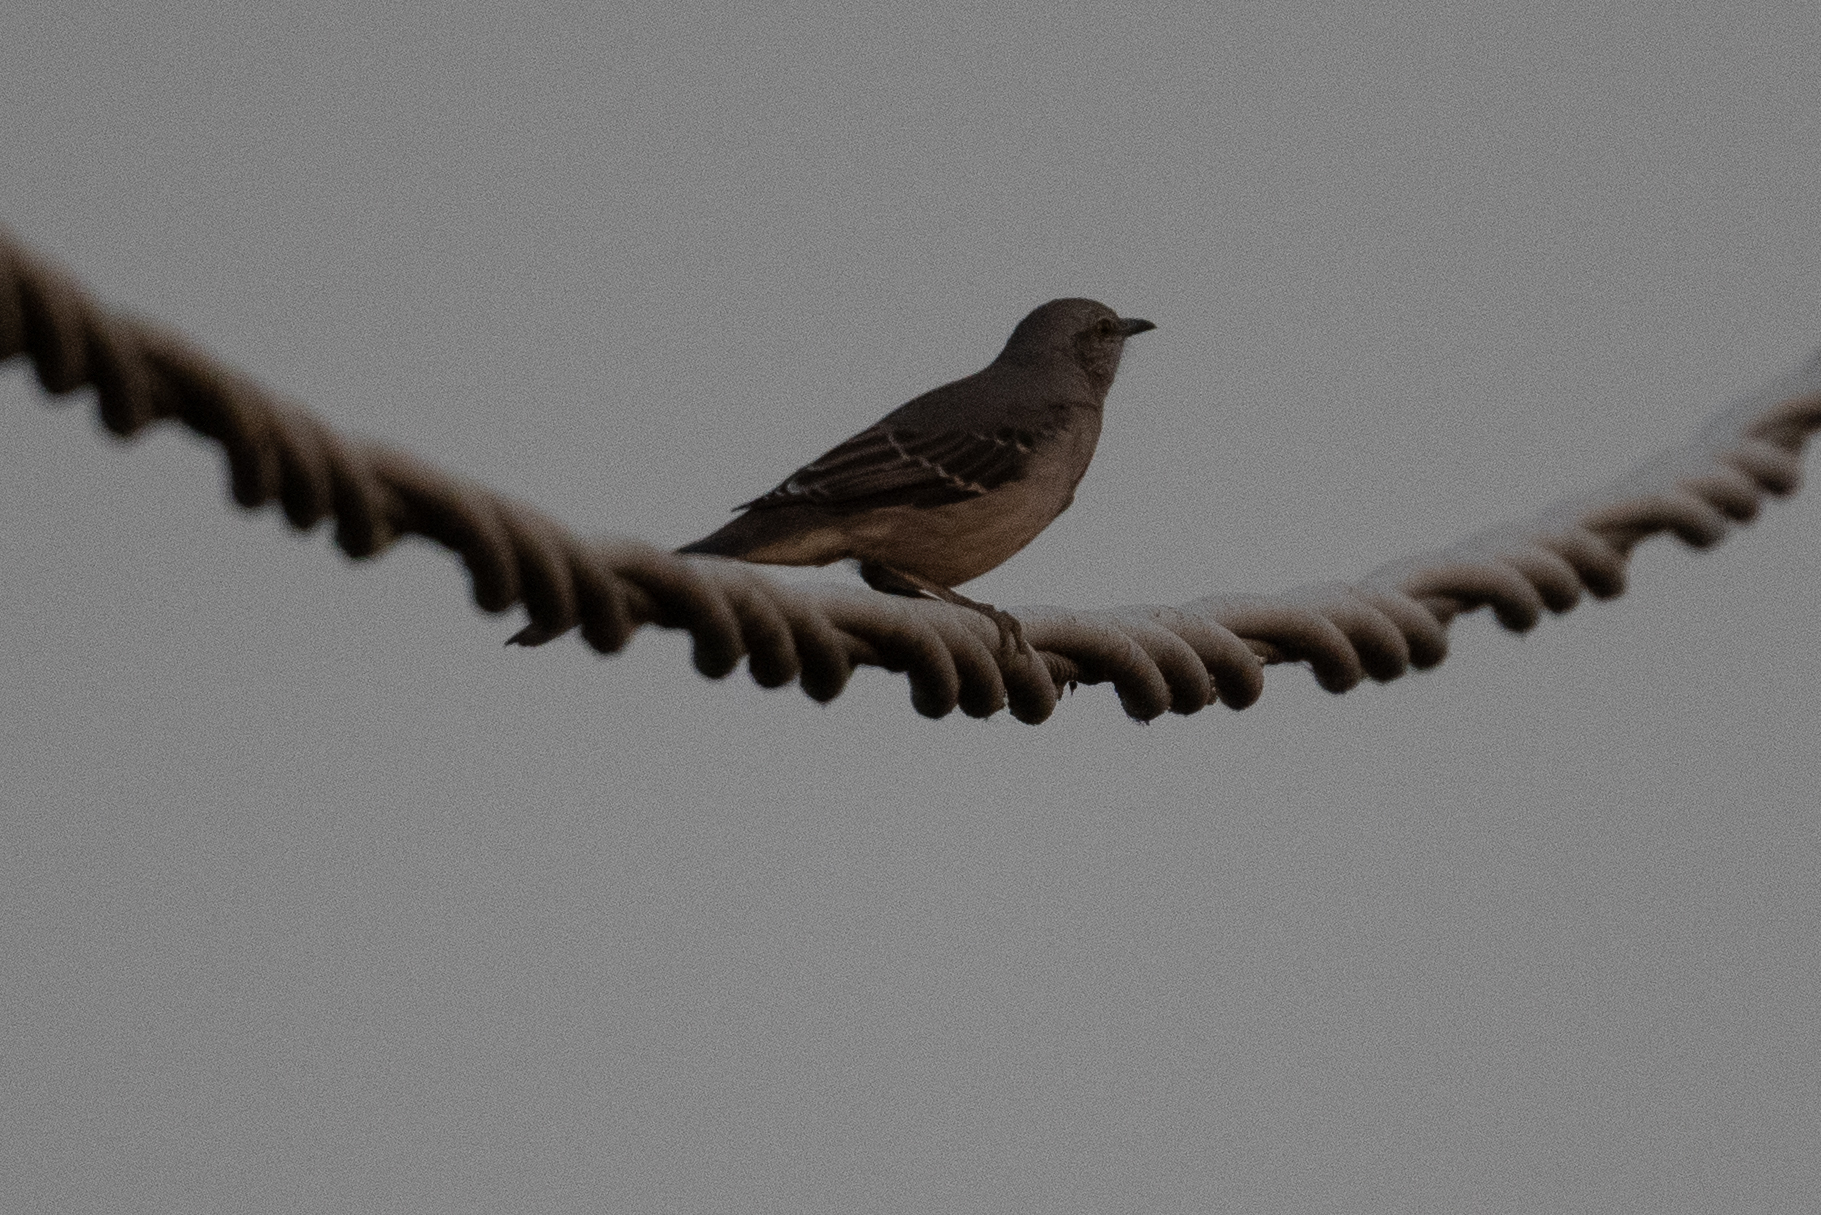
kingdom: Animalia
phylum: Chordata
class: Aves
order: Passeriformes
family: Mimidae
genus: Mimus
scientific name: Mimus polyglottos
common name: Northern mockingbird
